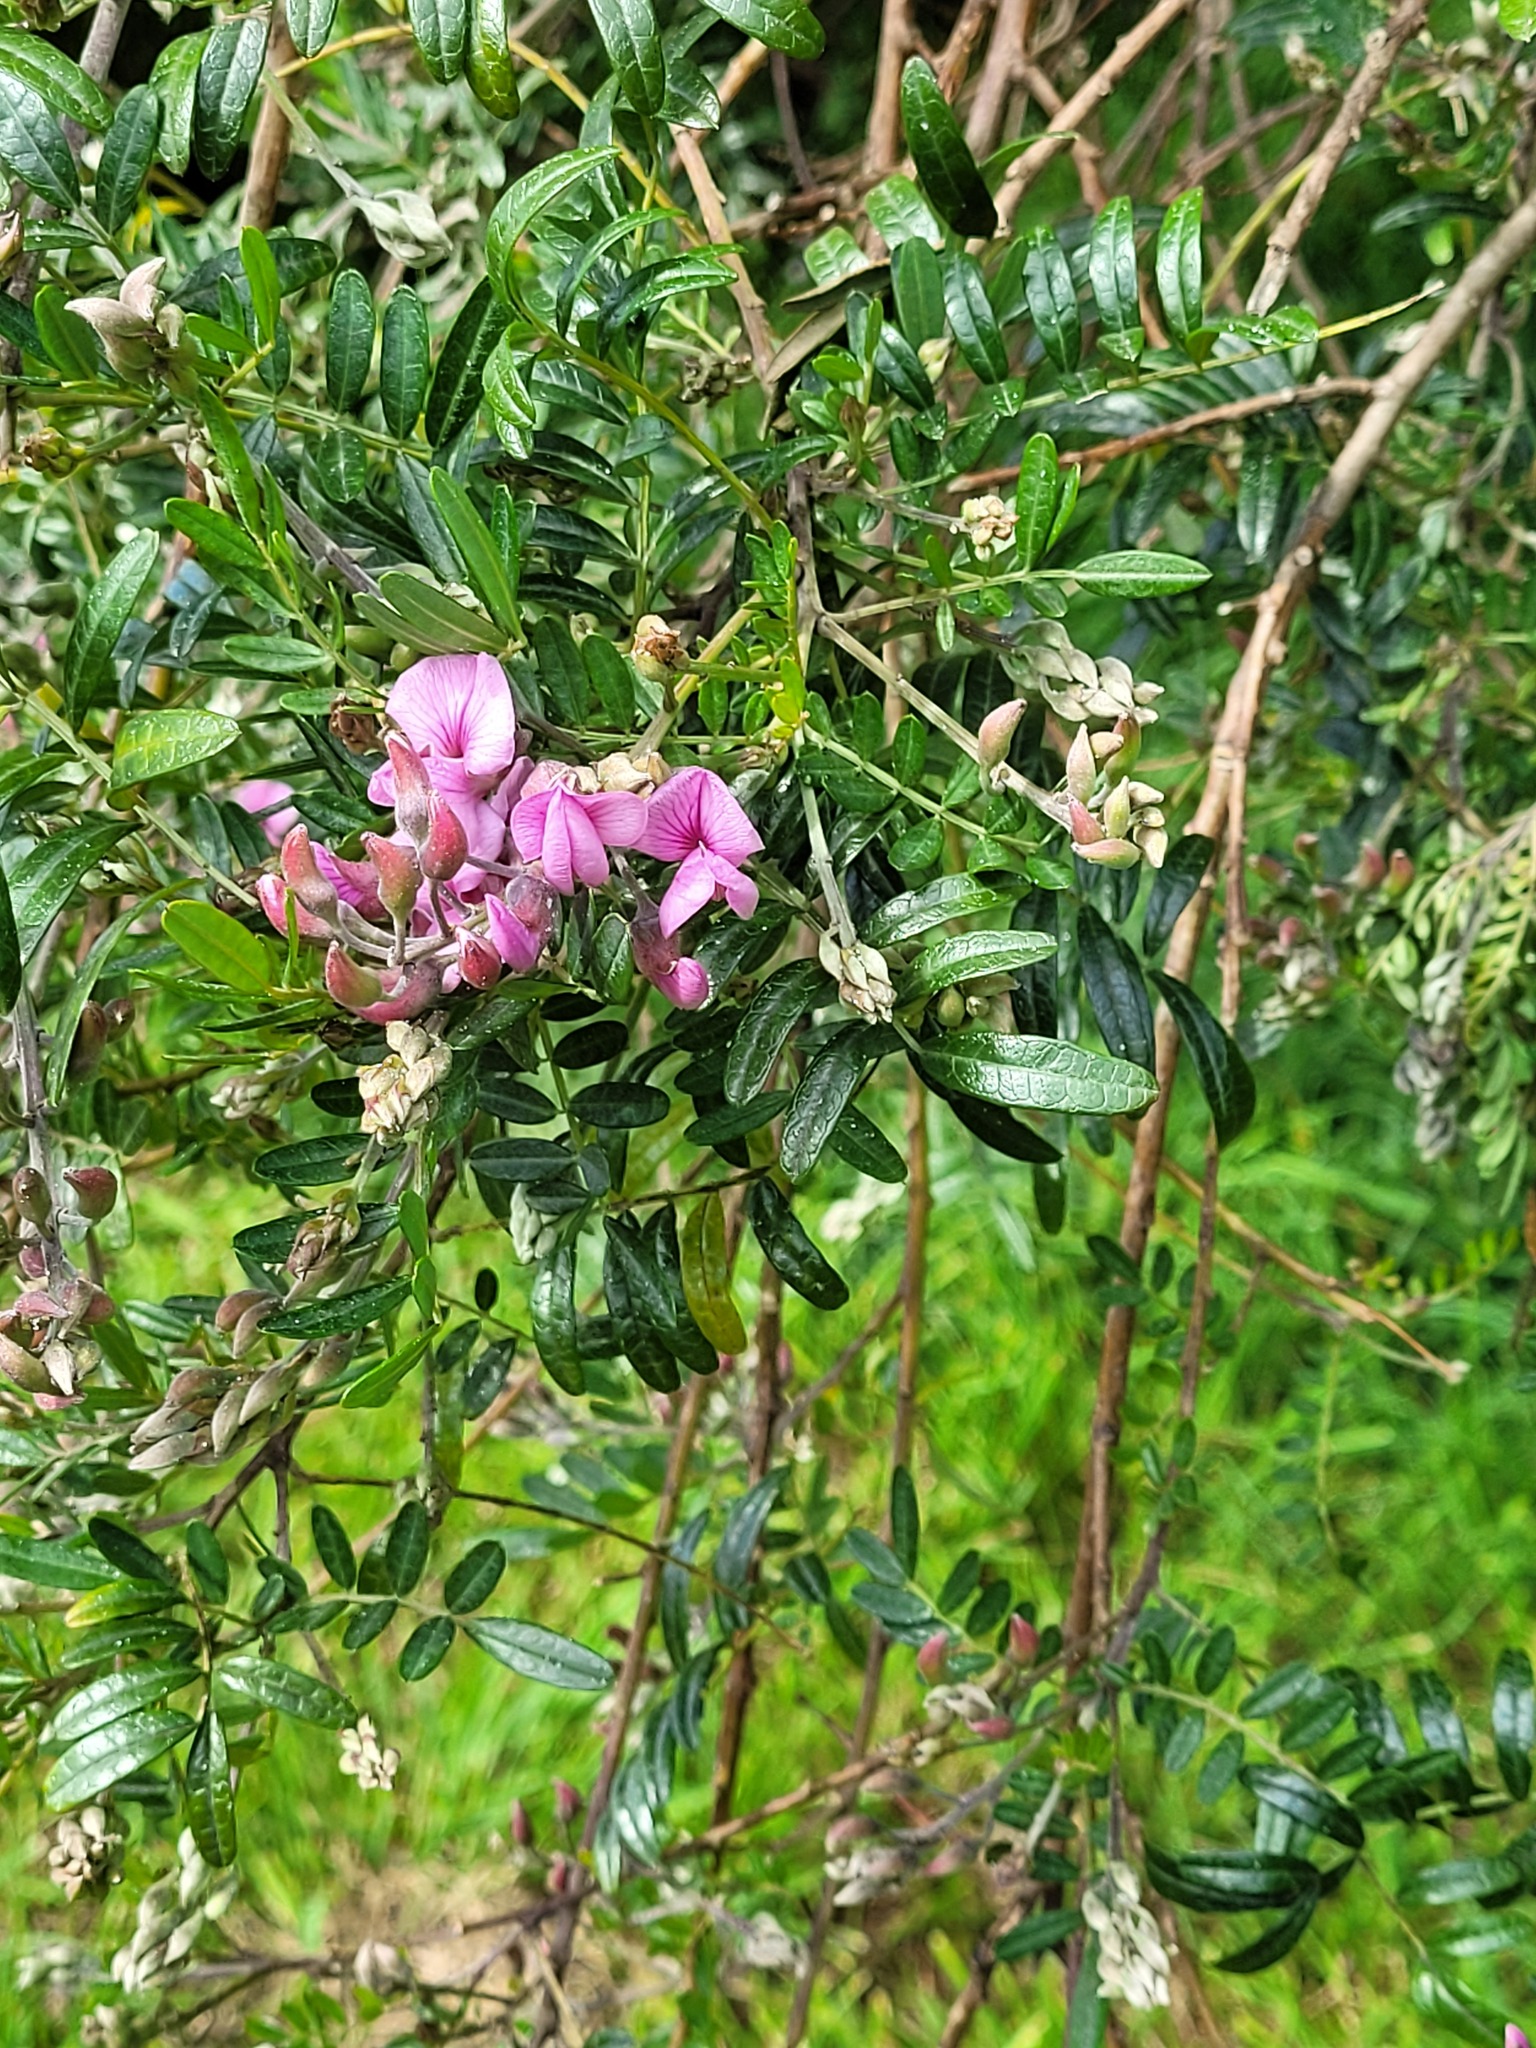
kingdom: Plantae
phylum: Tracheophyta
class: Magnoliopsida
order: Fabales
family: Fabaceae
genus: Virgilia
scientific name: Virgilia oroboides
